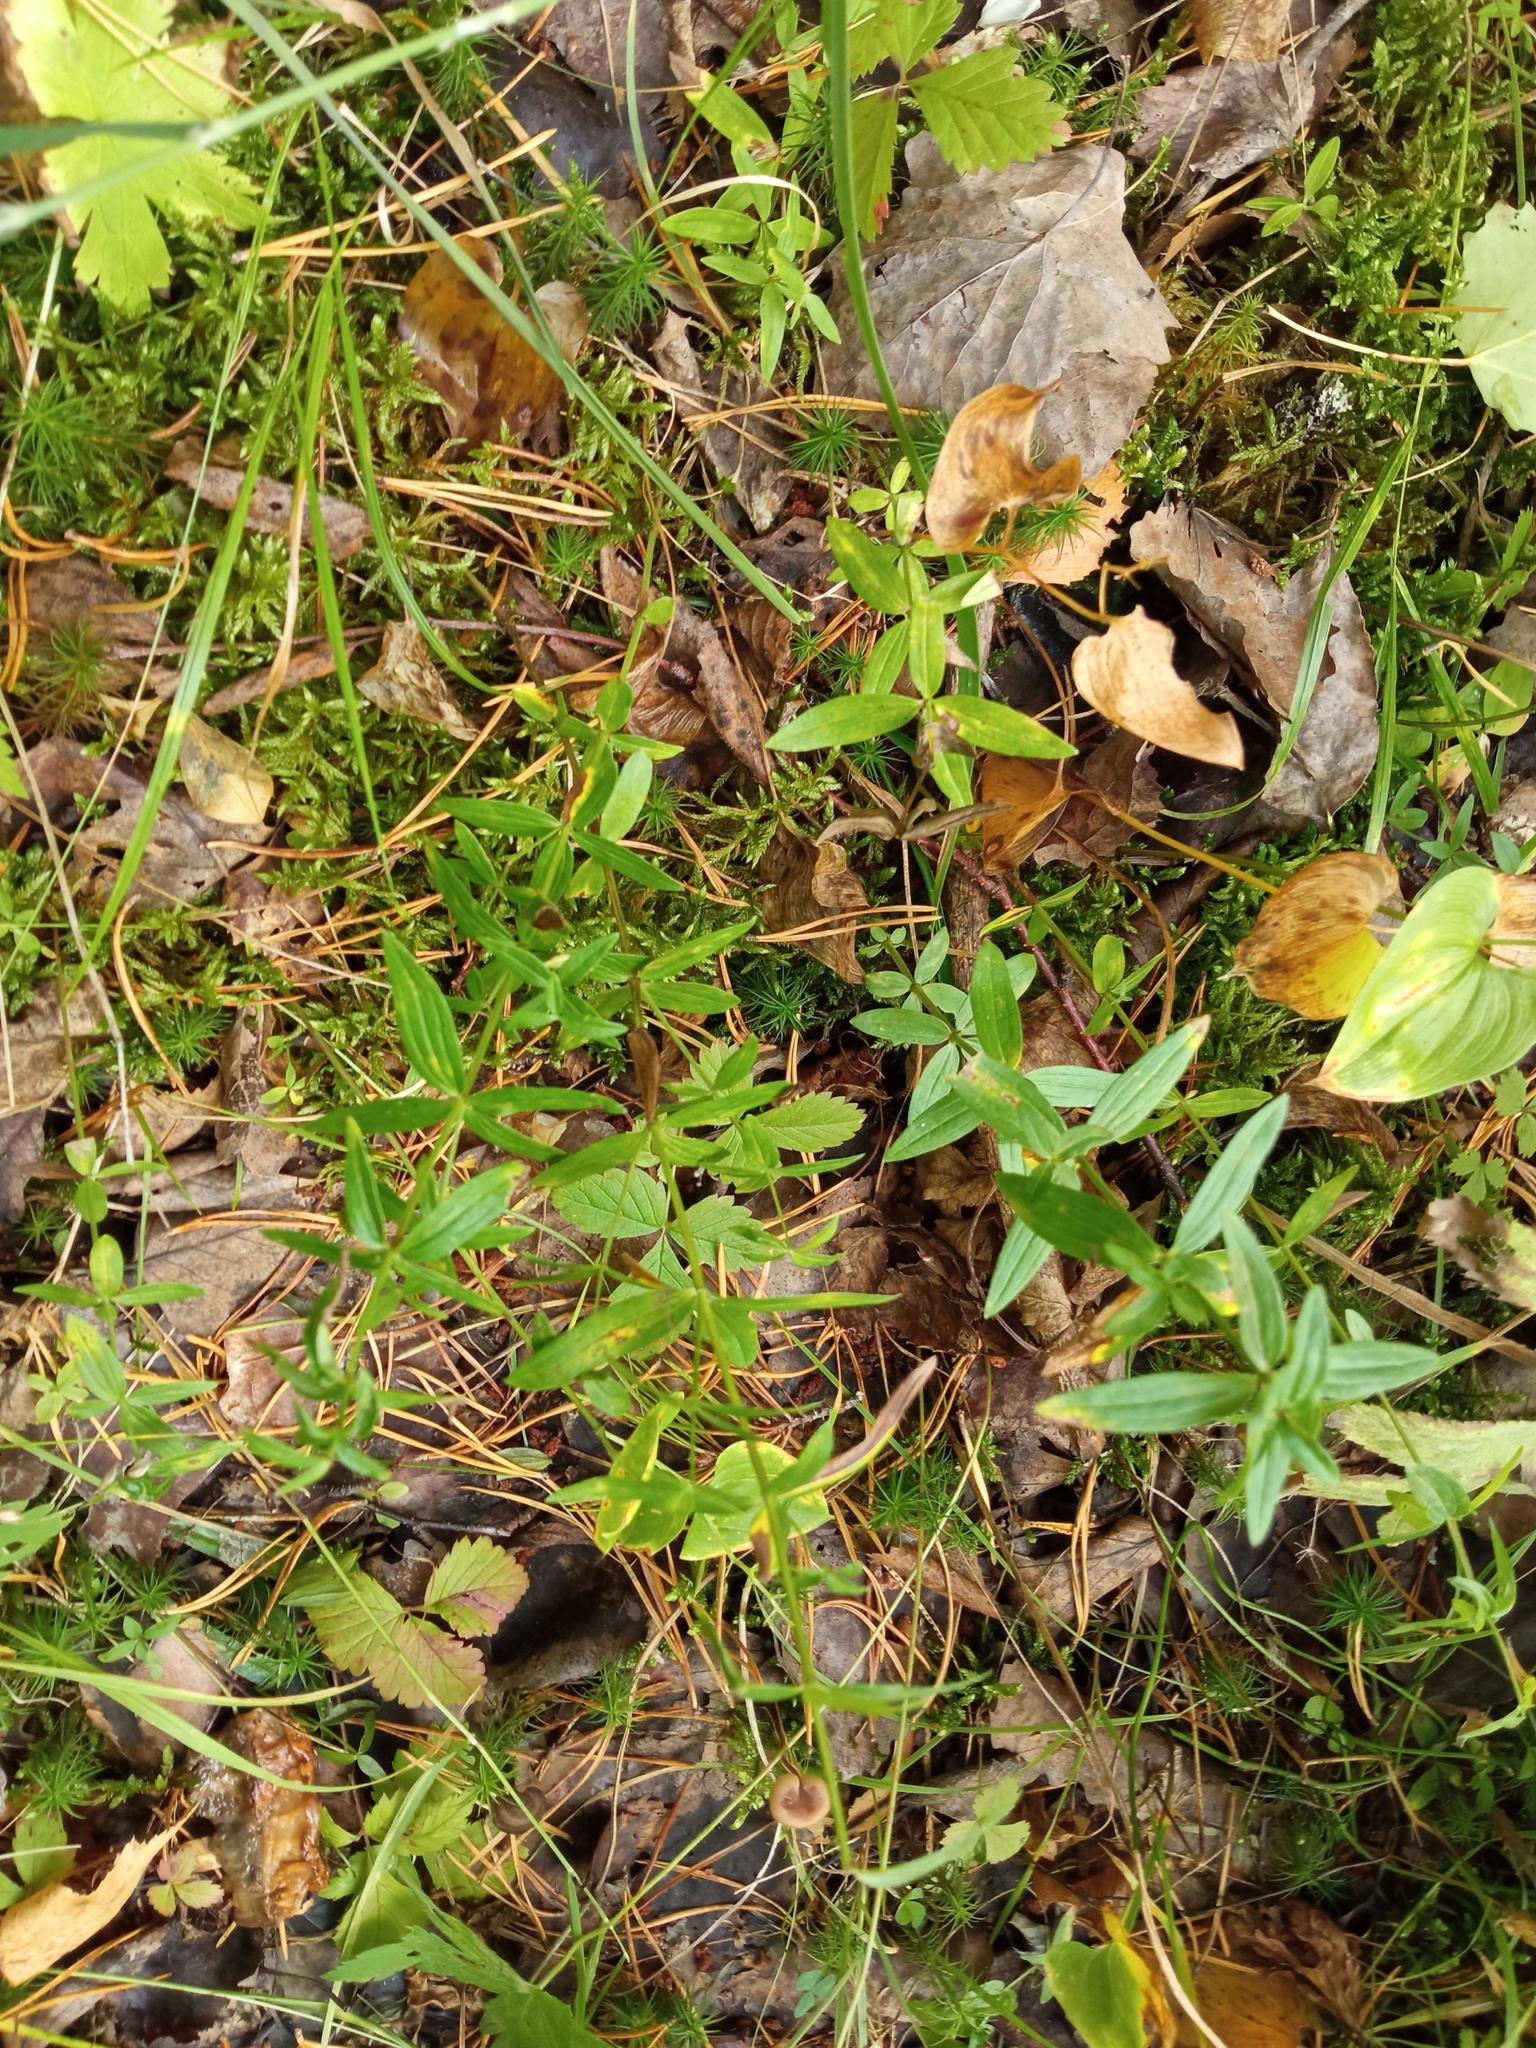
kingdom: Plantae
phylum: Tracheophyta
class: Magnoliopsida
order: Gentianales
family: Rubiaceae
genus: Galium
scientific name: Galium boreale
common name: Northern bedstraw
